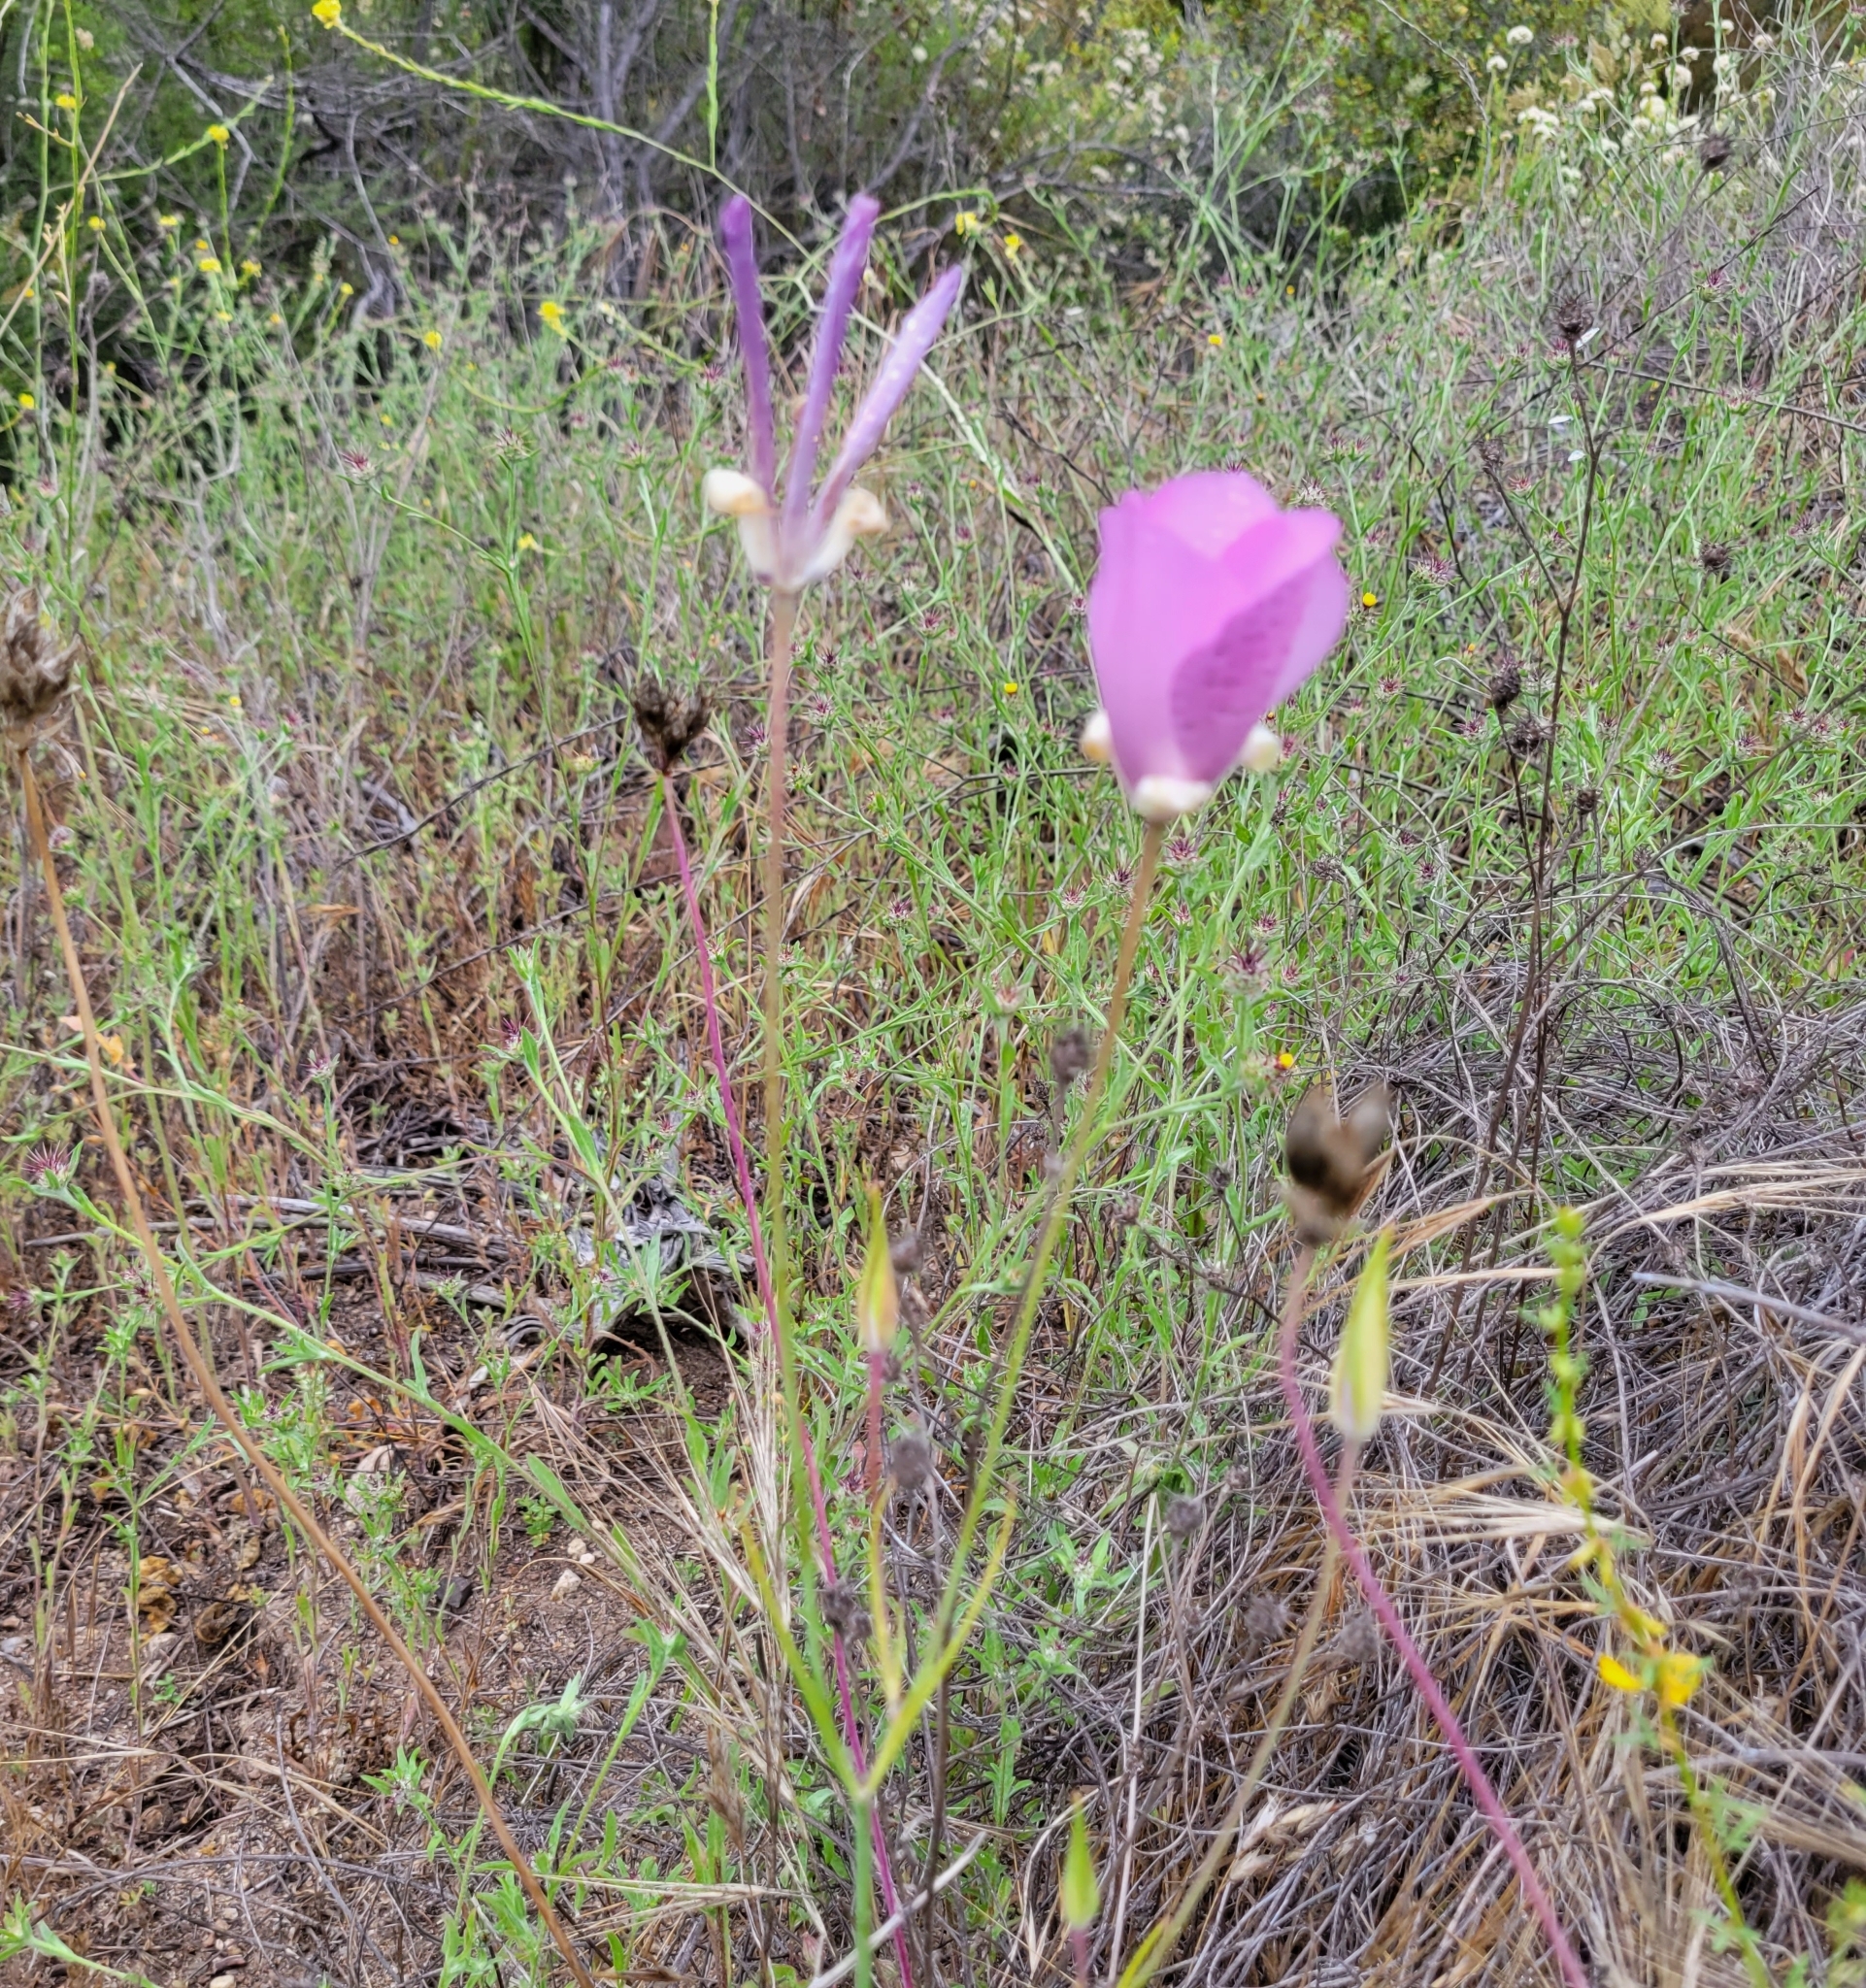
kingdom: Plantae
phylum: Tracheophyta
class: Liliopsida
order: Liliales
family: Liliaceae
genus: Calochortus
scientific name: Calochortus splendens
